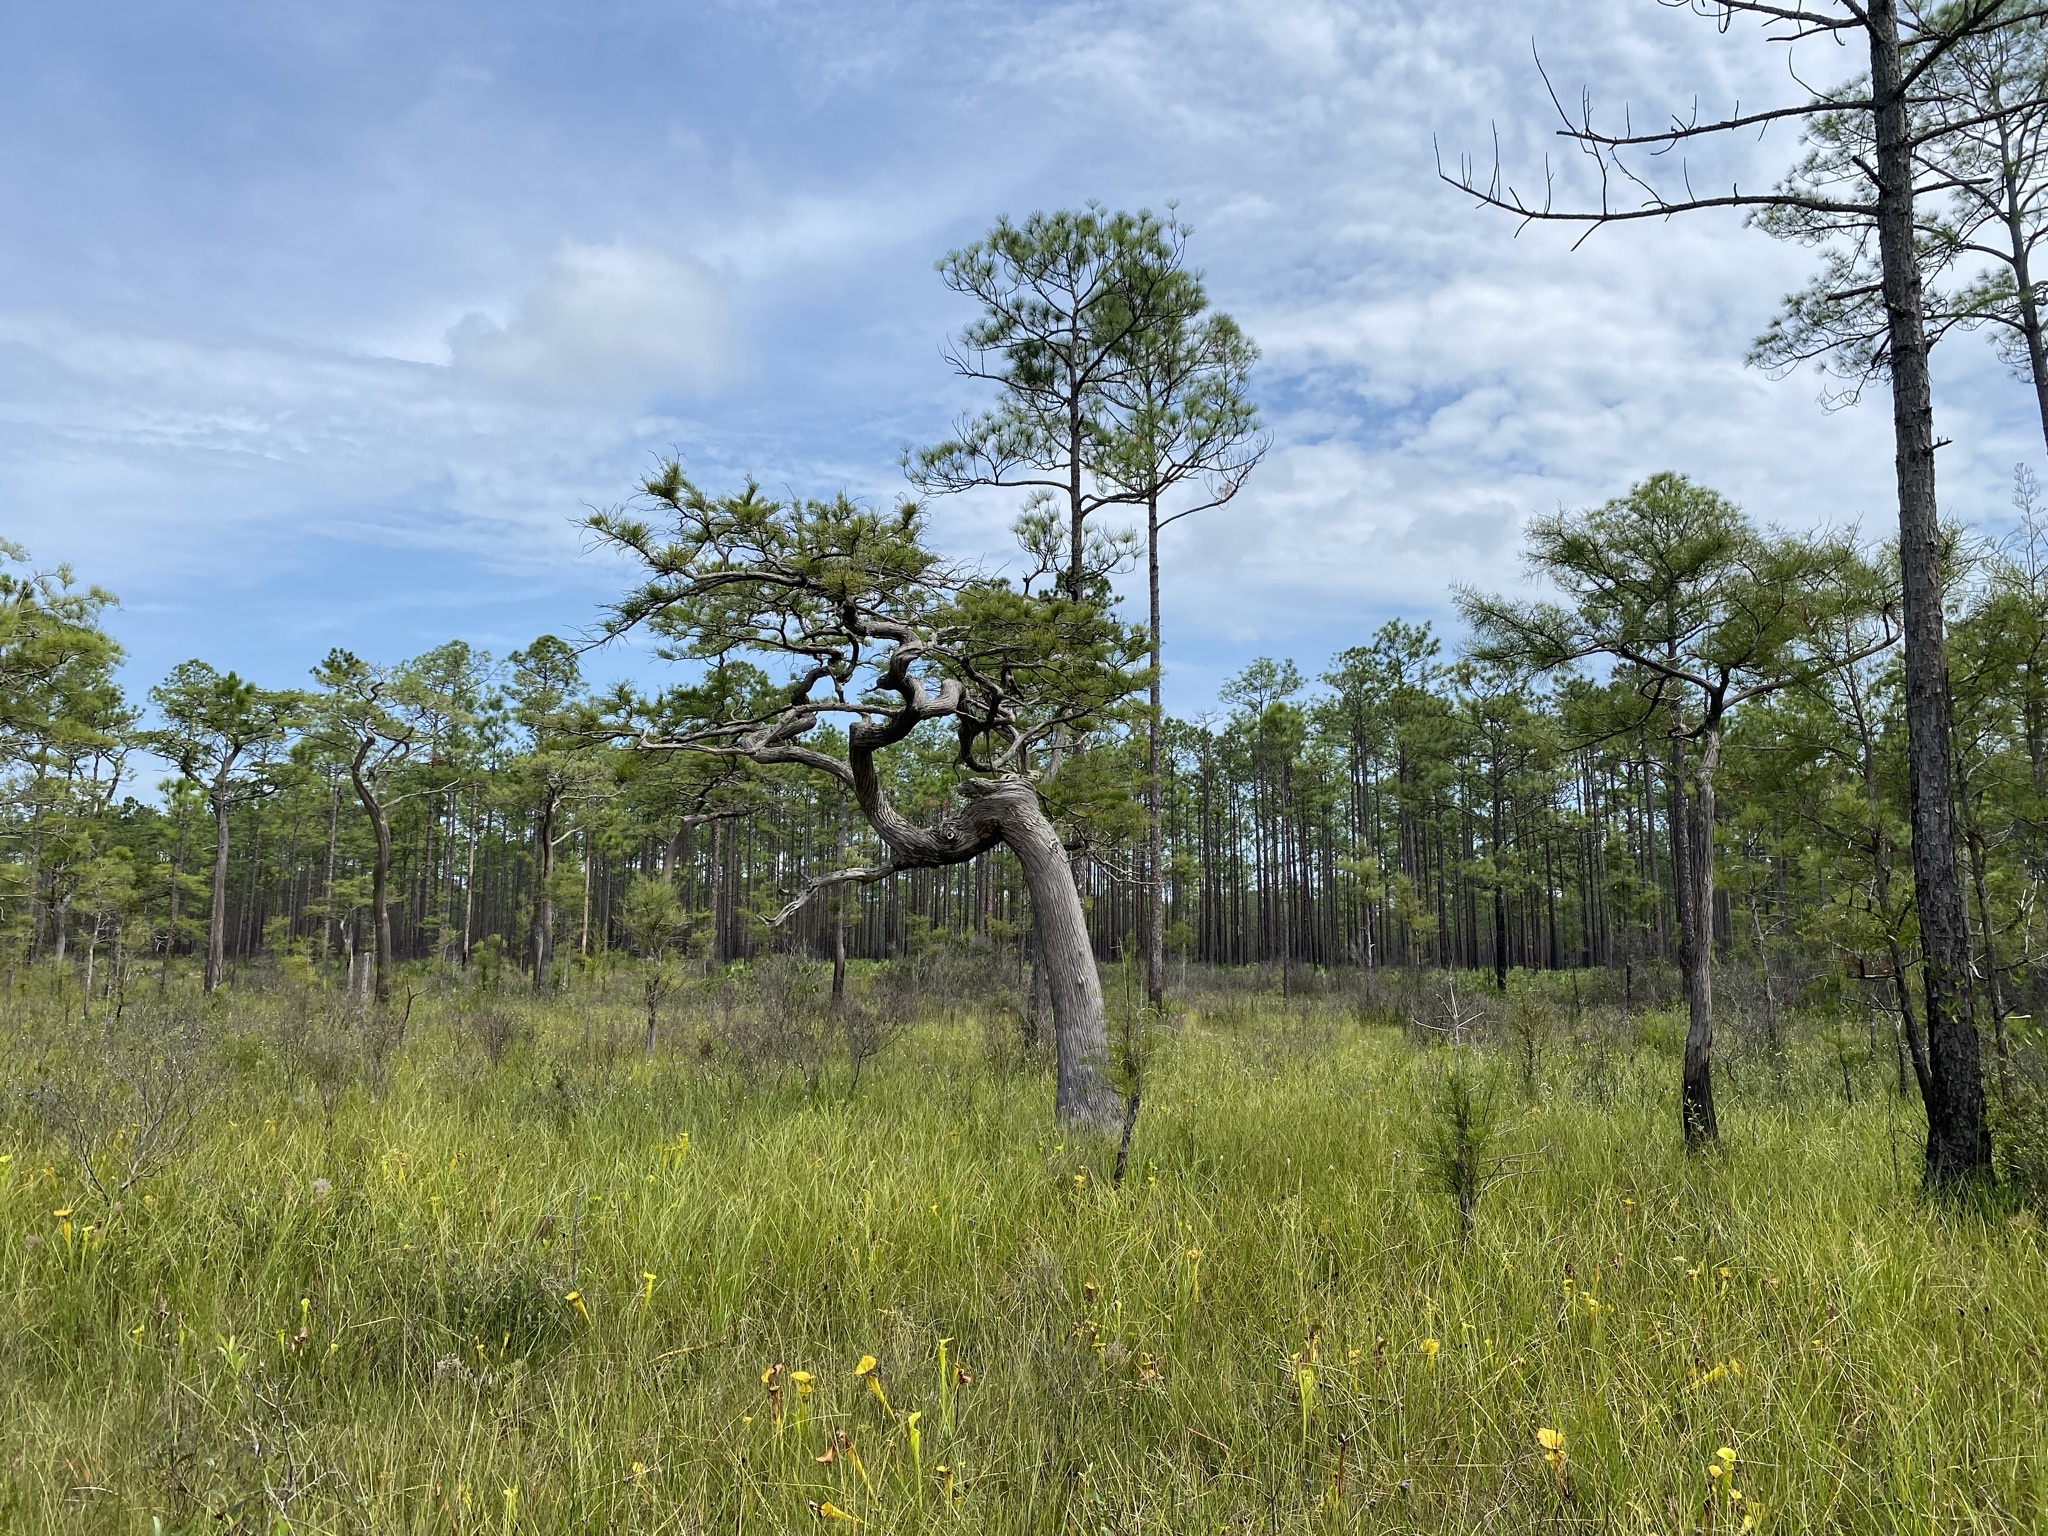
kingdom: Plantae
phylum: Tracheophyta
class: Pinopsida
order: Pinales
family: Cupressaceae
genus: Taxodium
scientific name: Taxodium distichum
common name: Bald cypress
